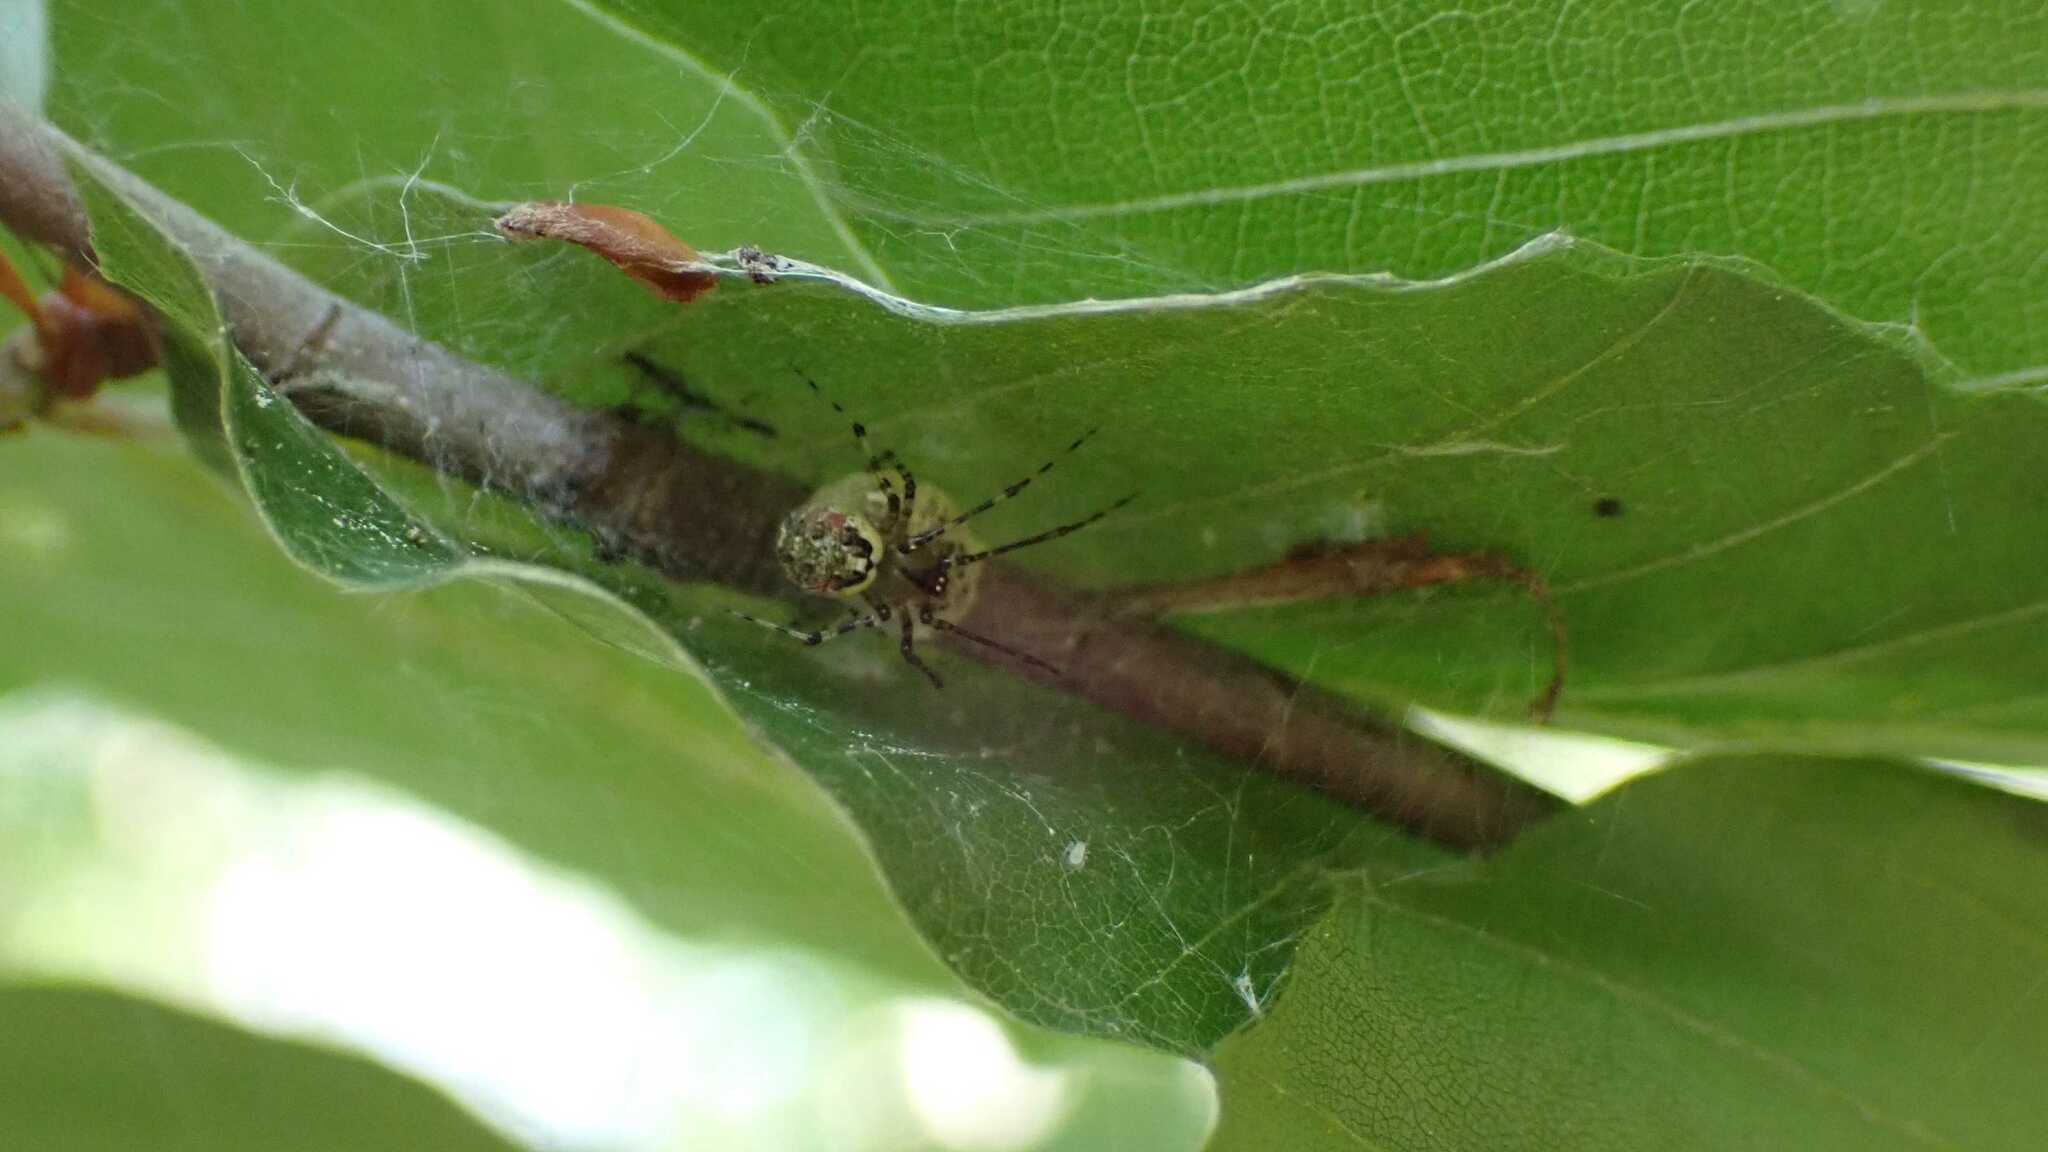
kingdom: Animalia
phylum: Arthropoda
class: Arachnida
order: Araneae
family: Theridiidae
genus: Platnickina
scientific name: Platnickina tincta
